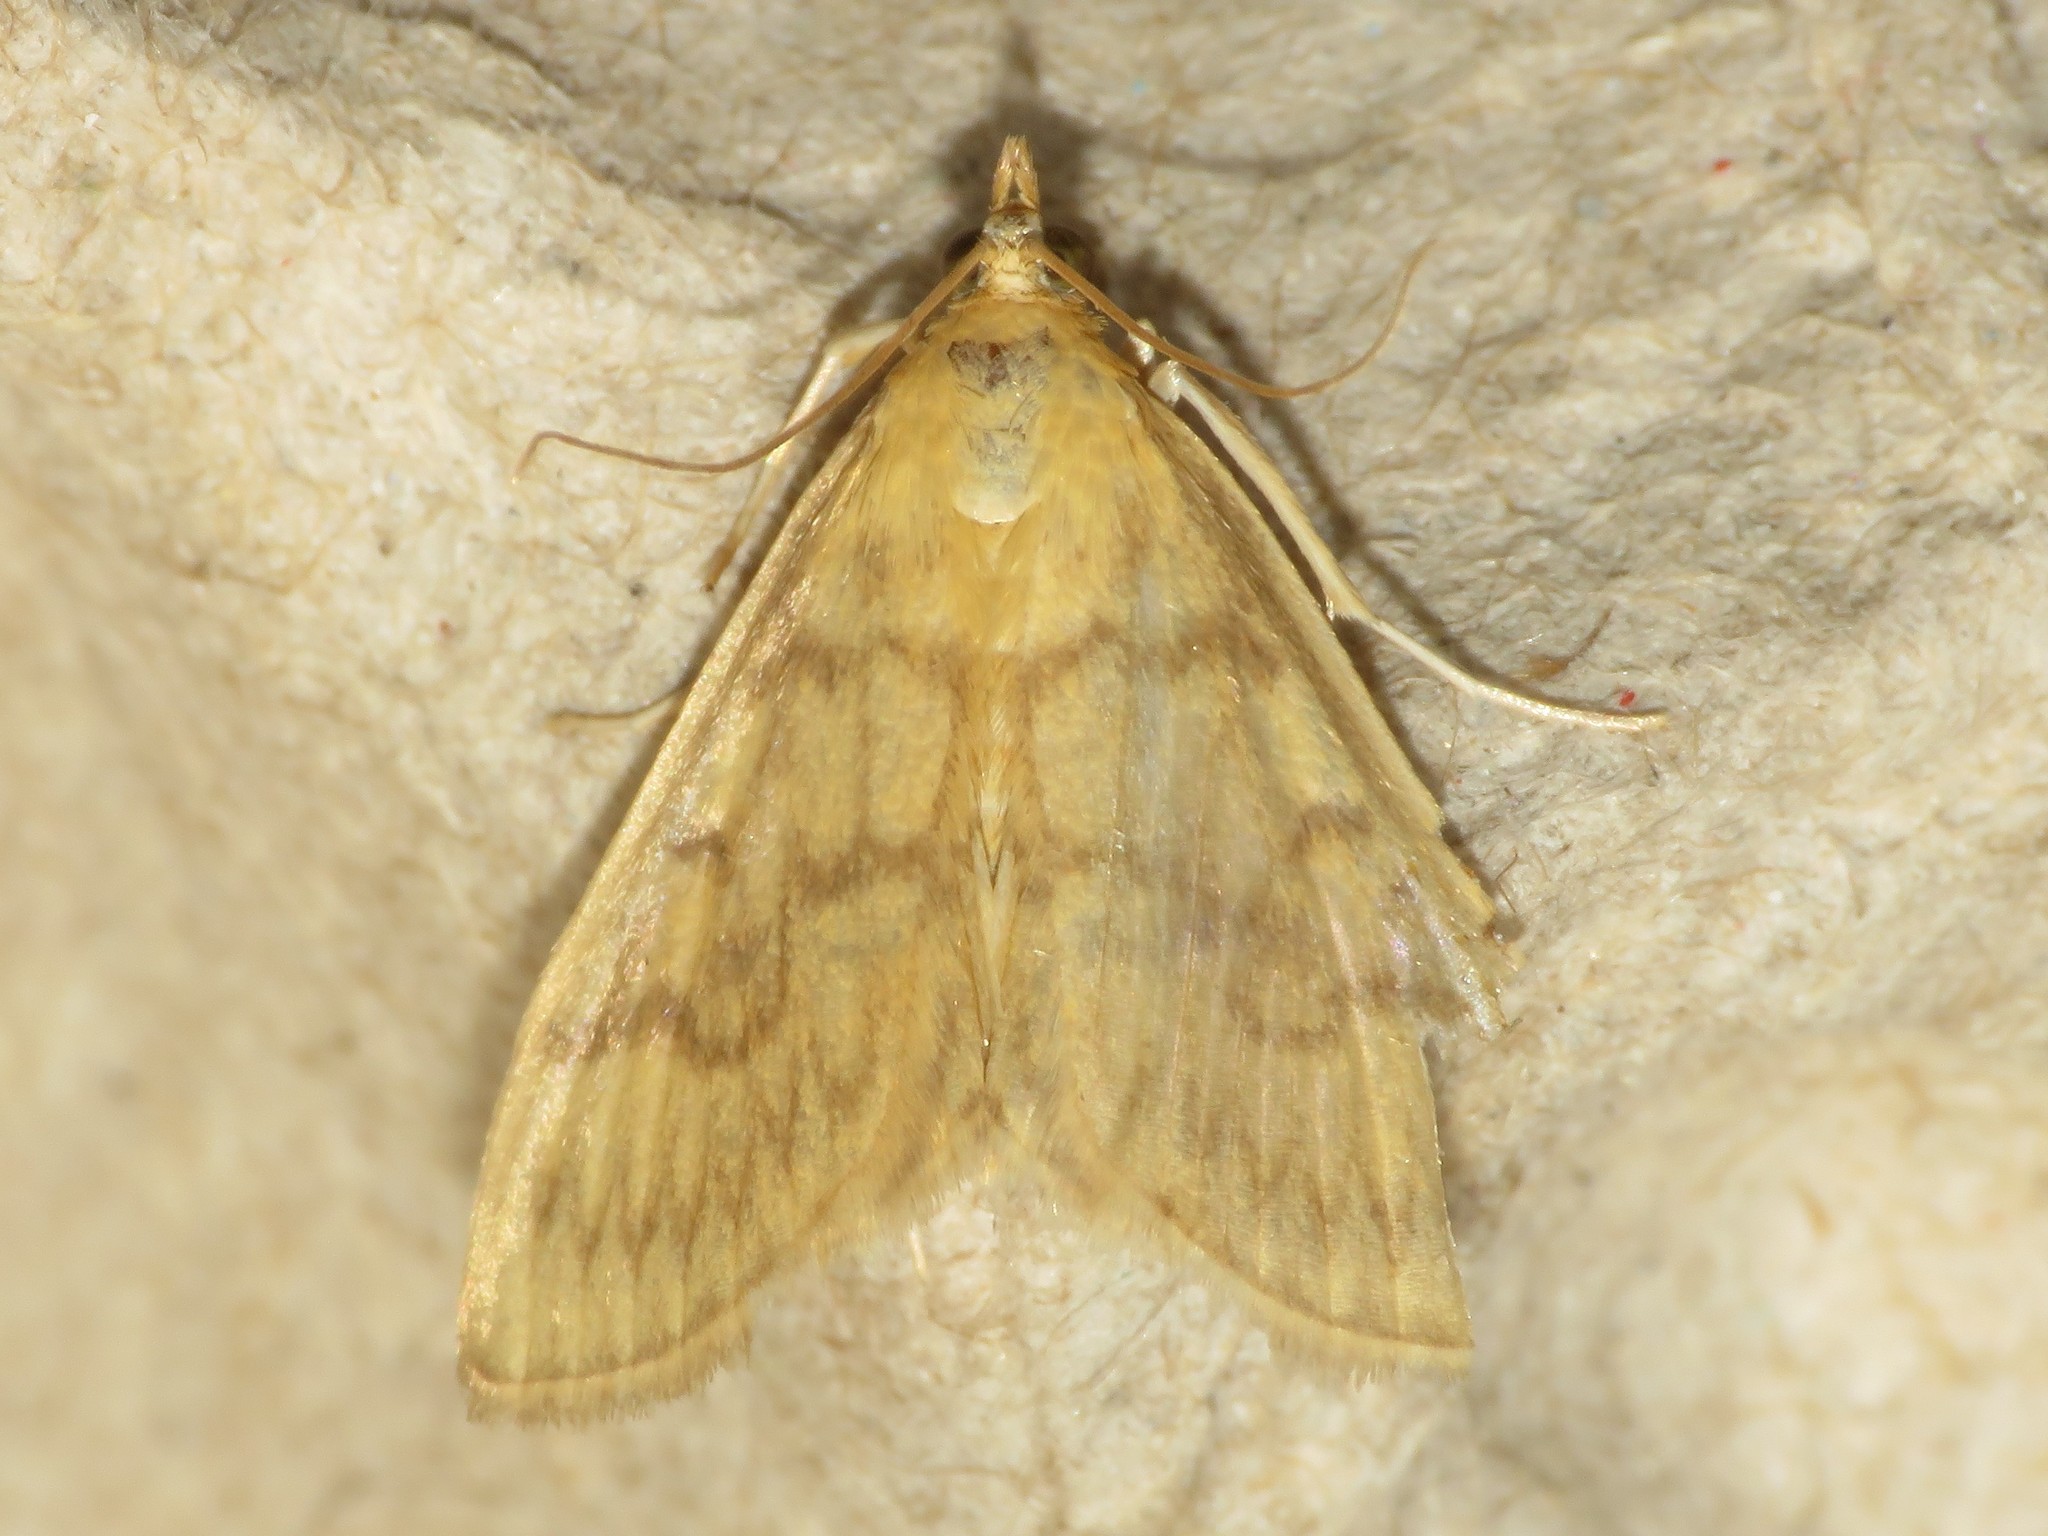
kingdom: Animalia
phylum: Arthropoda
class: Insecta
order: Lepidoptera
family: Crambidae
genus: Crocidophora
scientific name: Crocidophora serratissimalis
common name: Saw-toothed crocidophora moth
